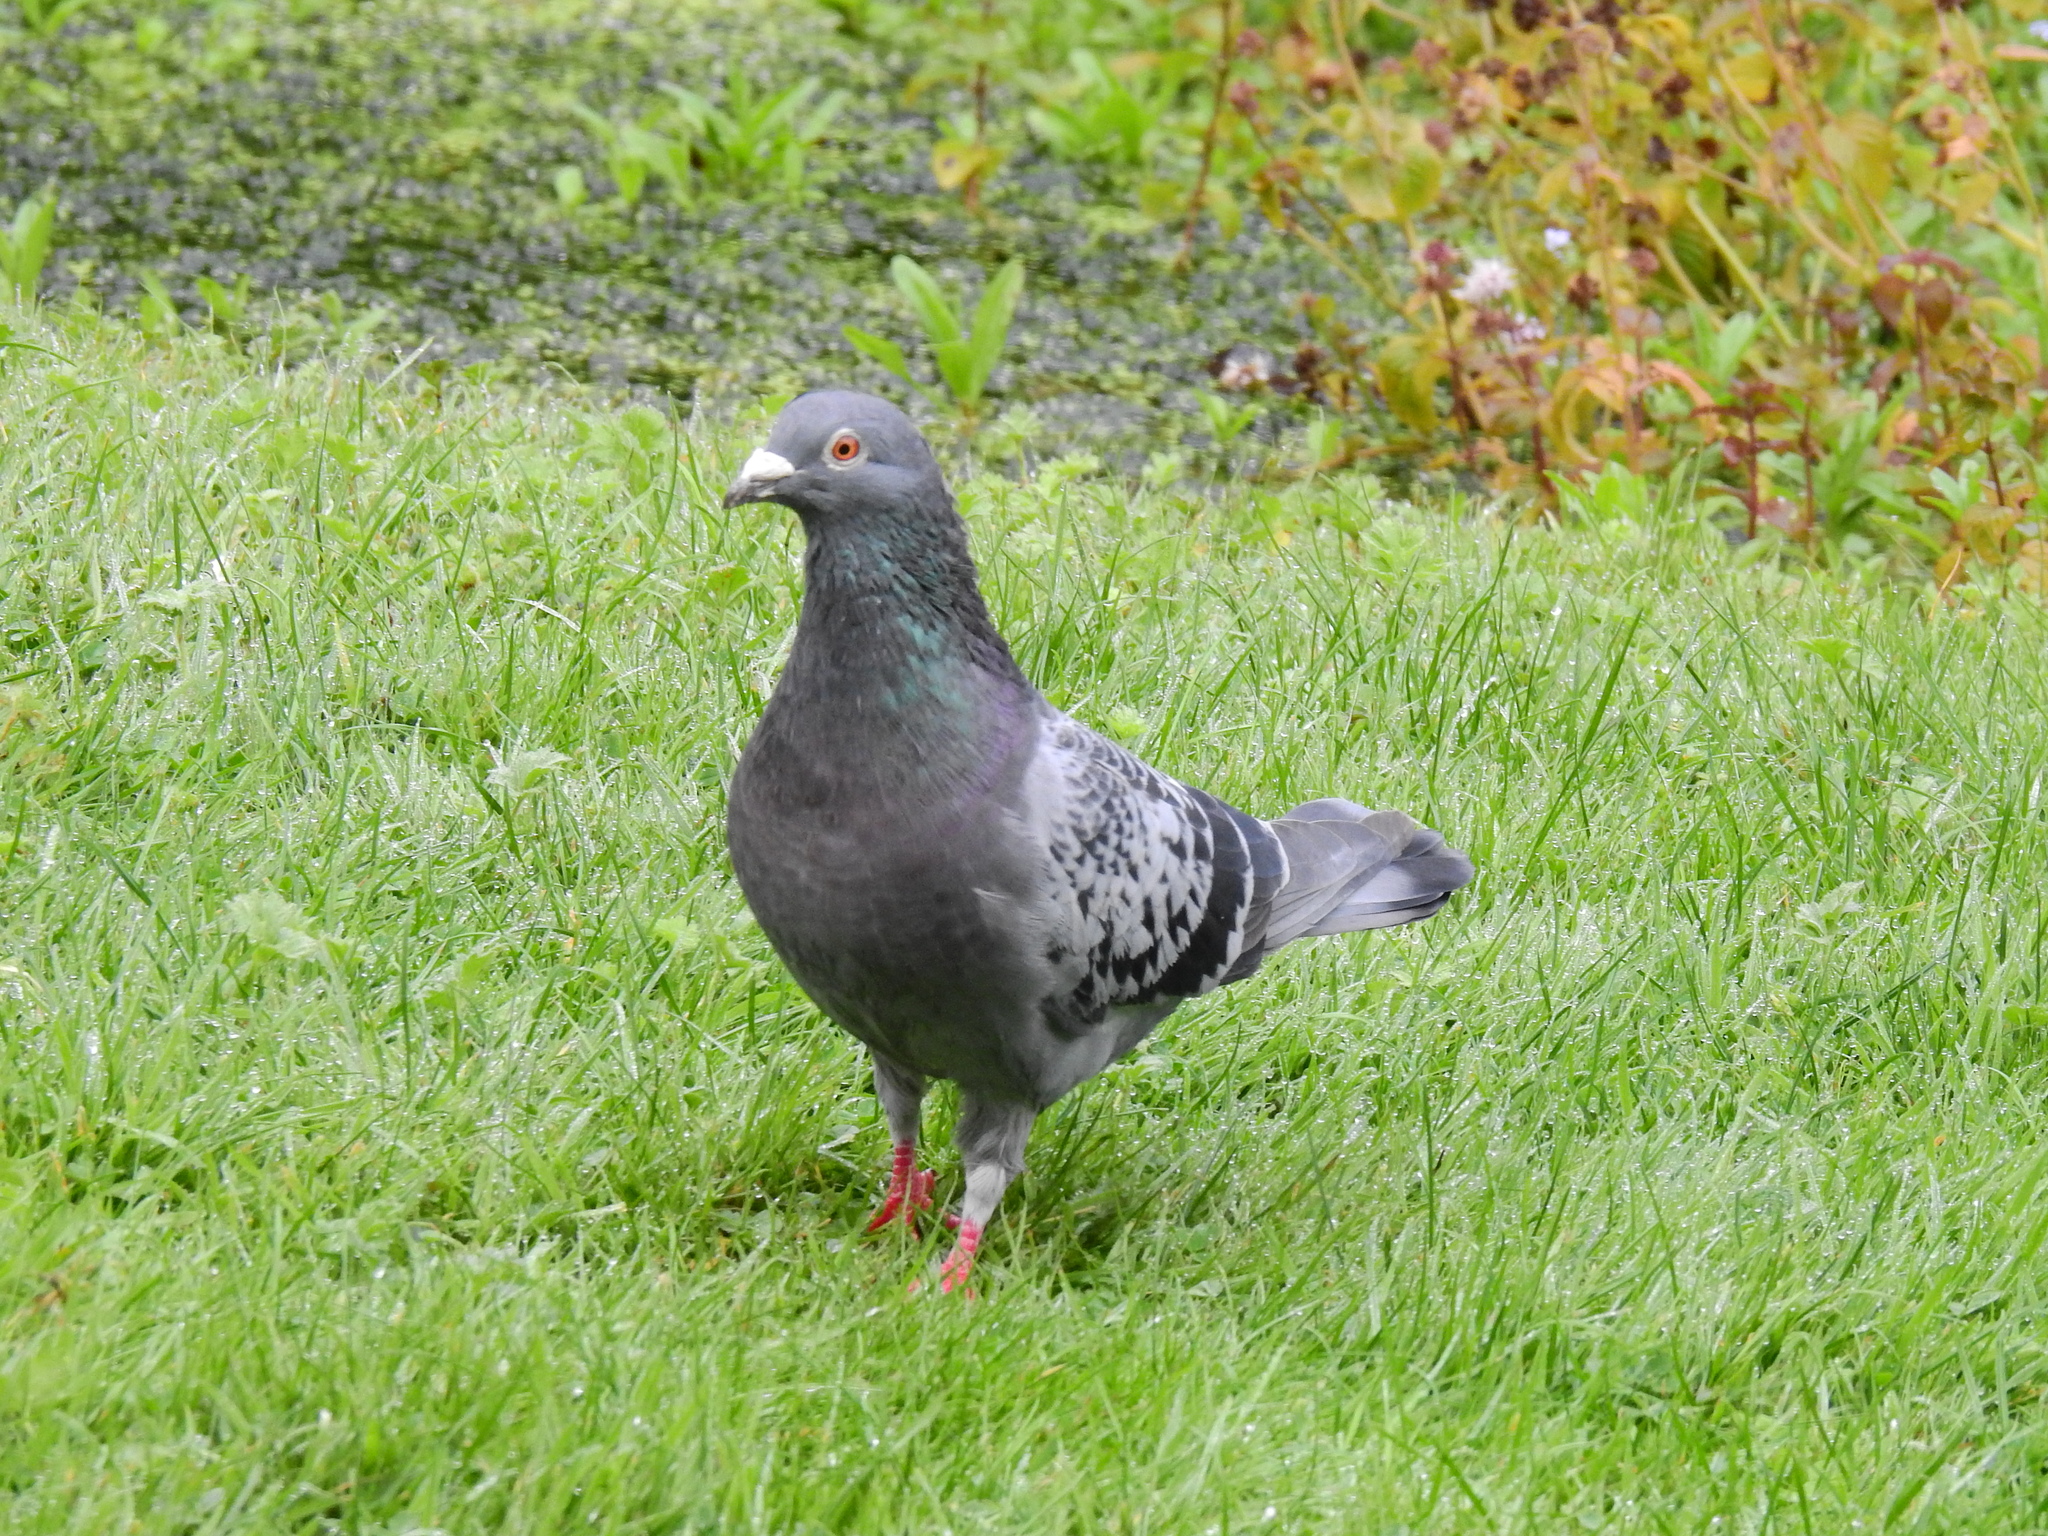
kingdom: Animalia
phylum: Chordata
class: Aves
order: Columbiformes
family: Columbidae
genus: Columba
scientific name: Columba livia
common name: Rock pigeon
